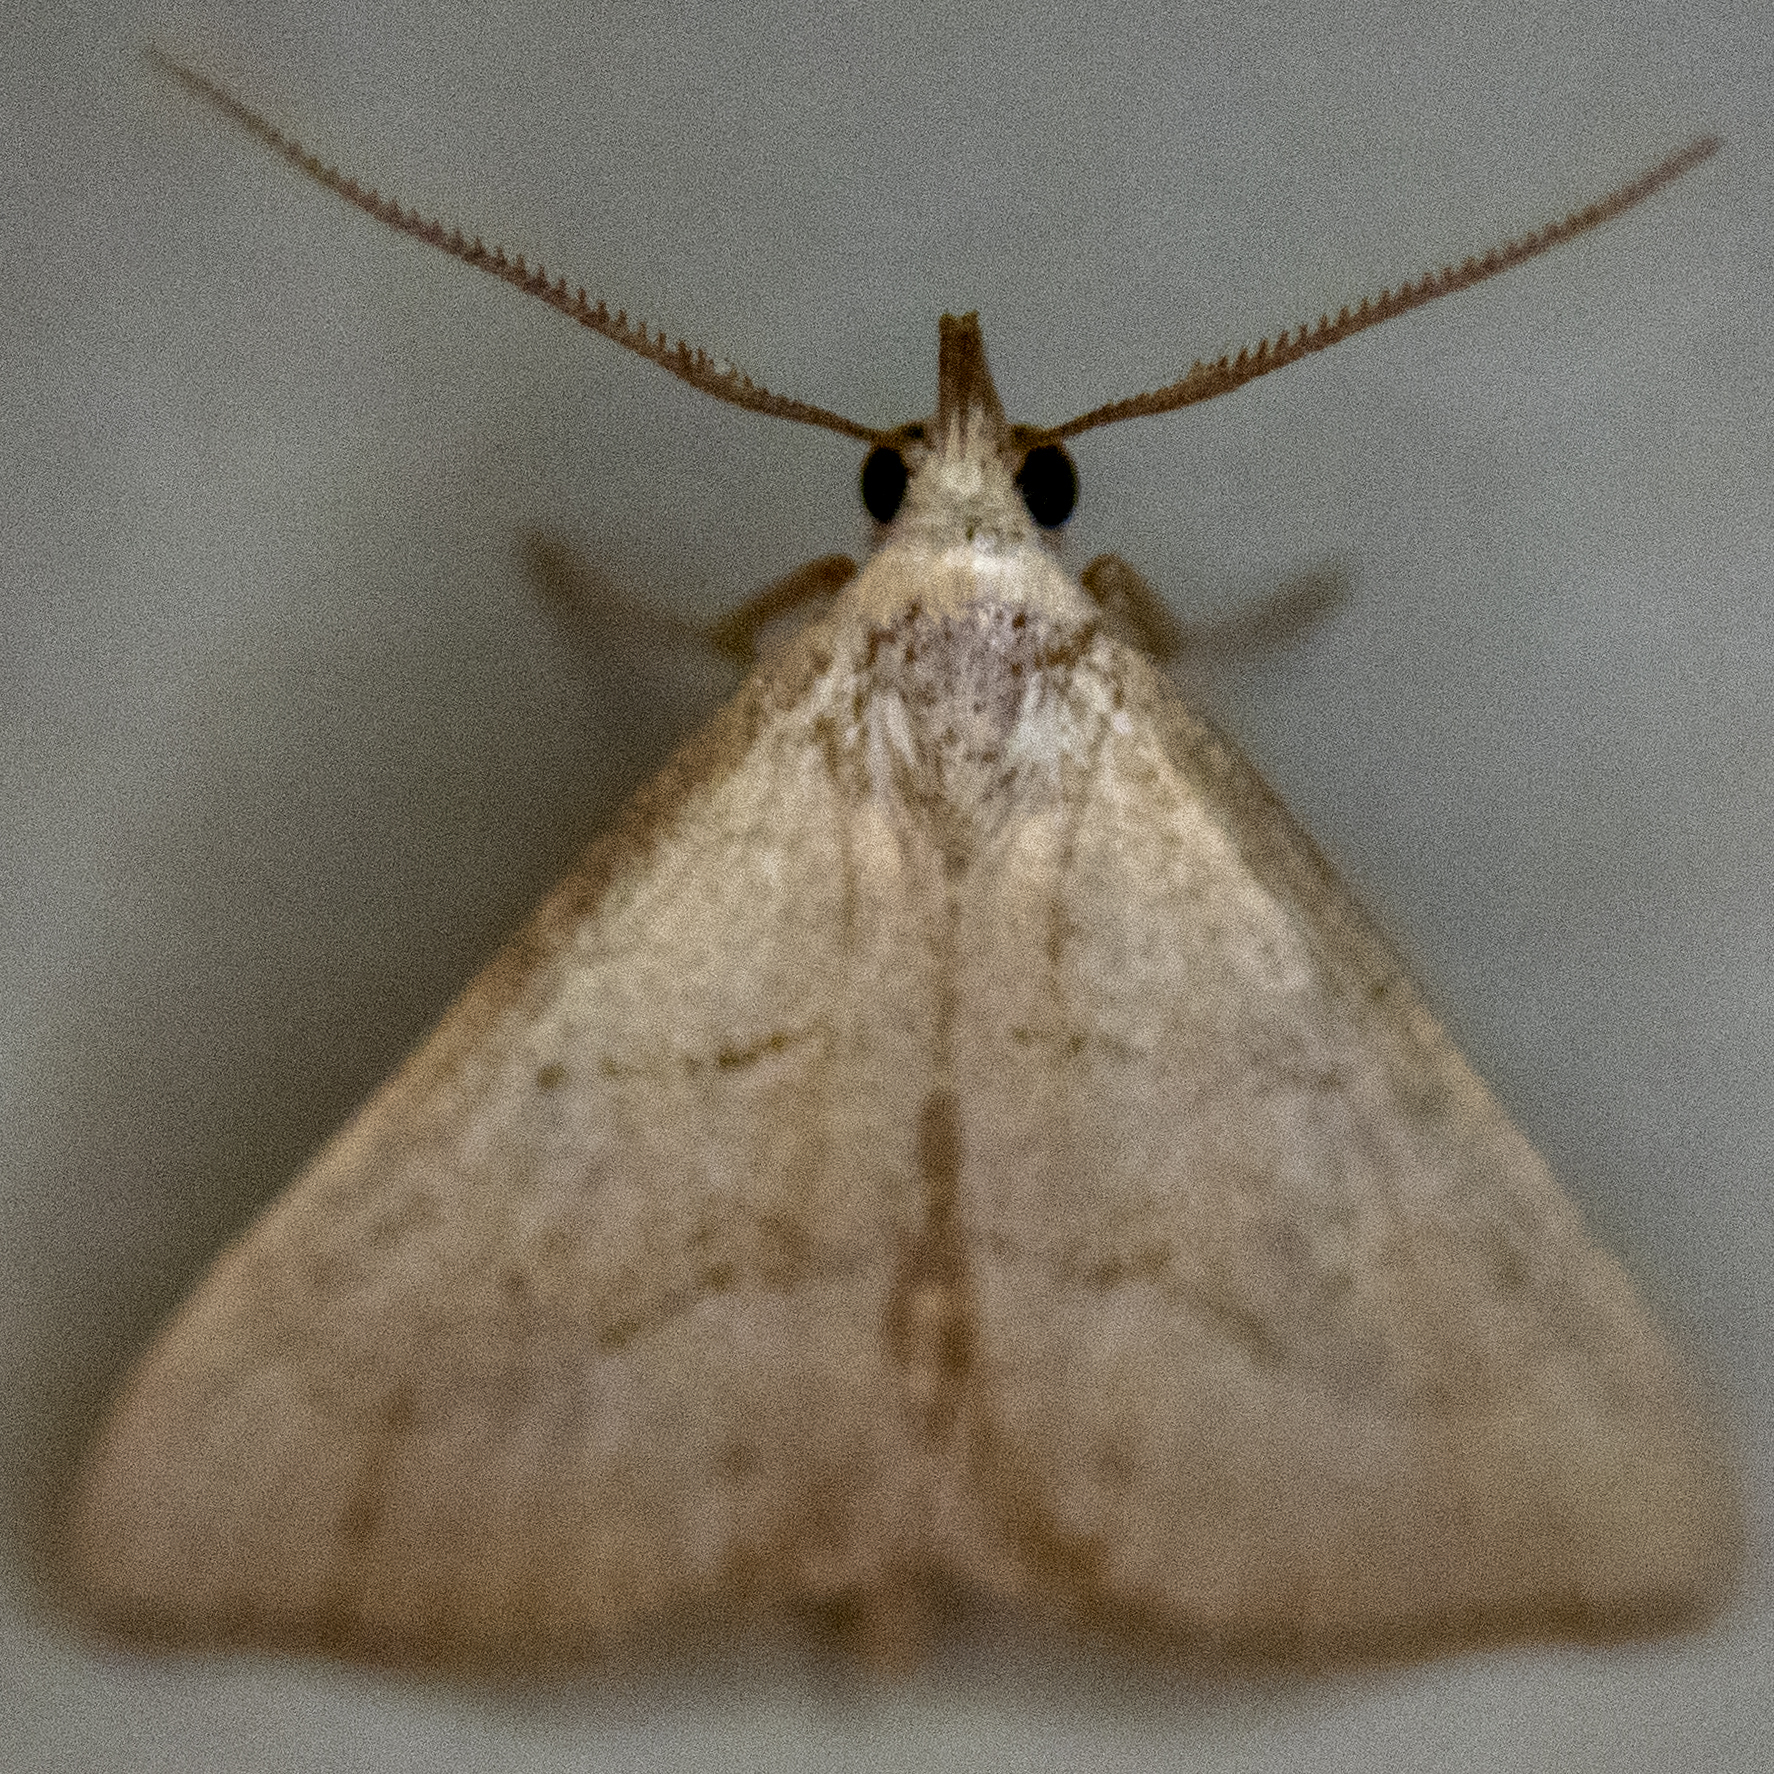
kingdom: Animalia
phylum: Arthropoda
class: Insecta
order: Lepidoptera
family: Erebidae
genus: Macrochilo
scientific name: Macrochilo litophora
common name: Brown-lined owlet
